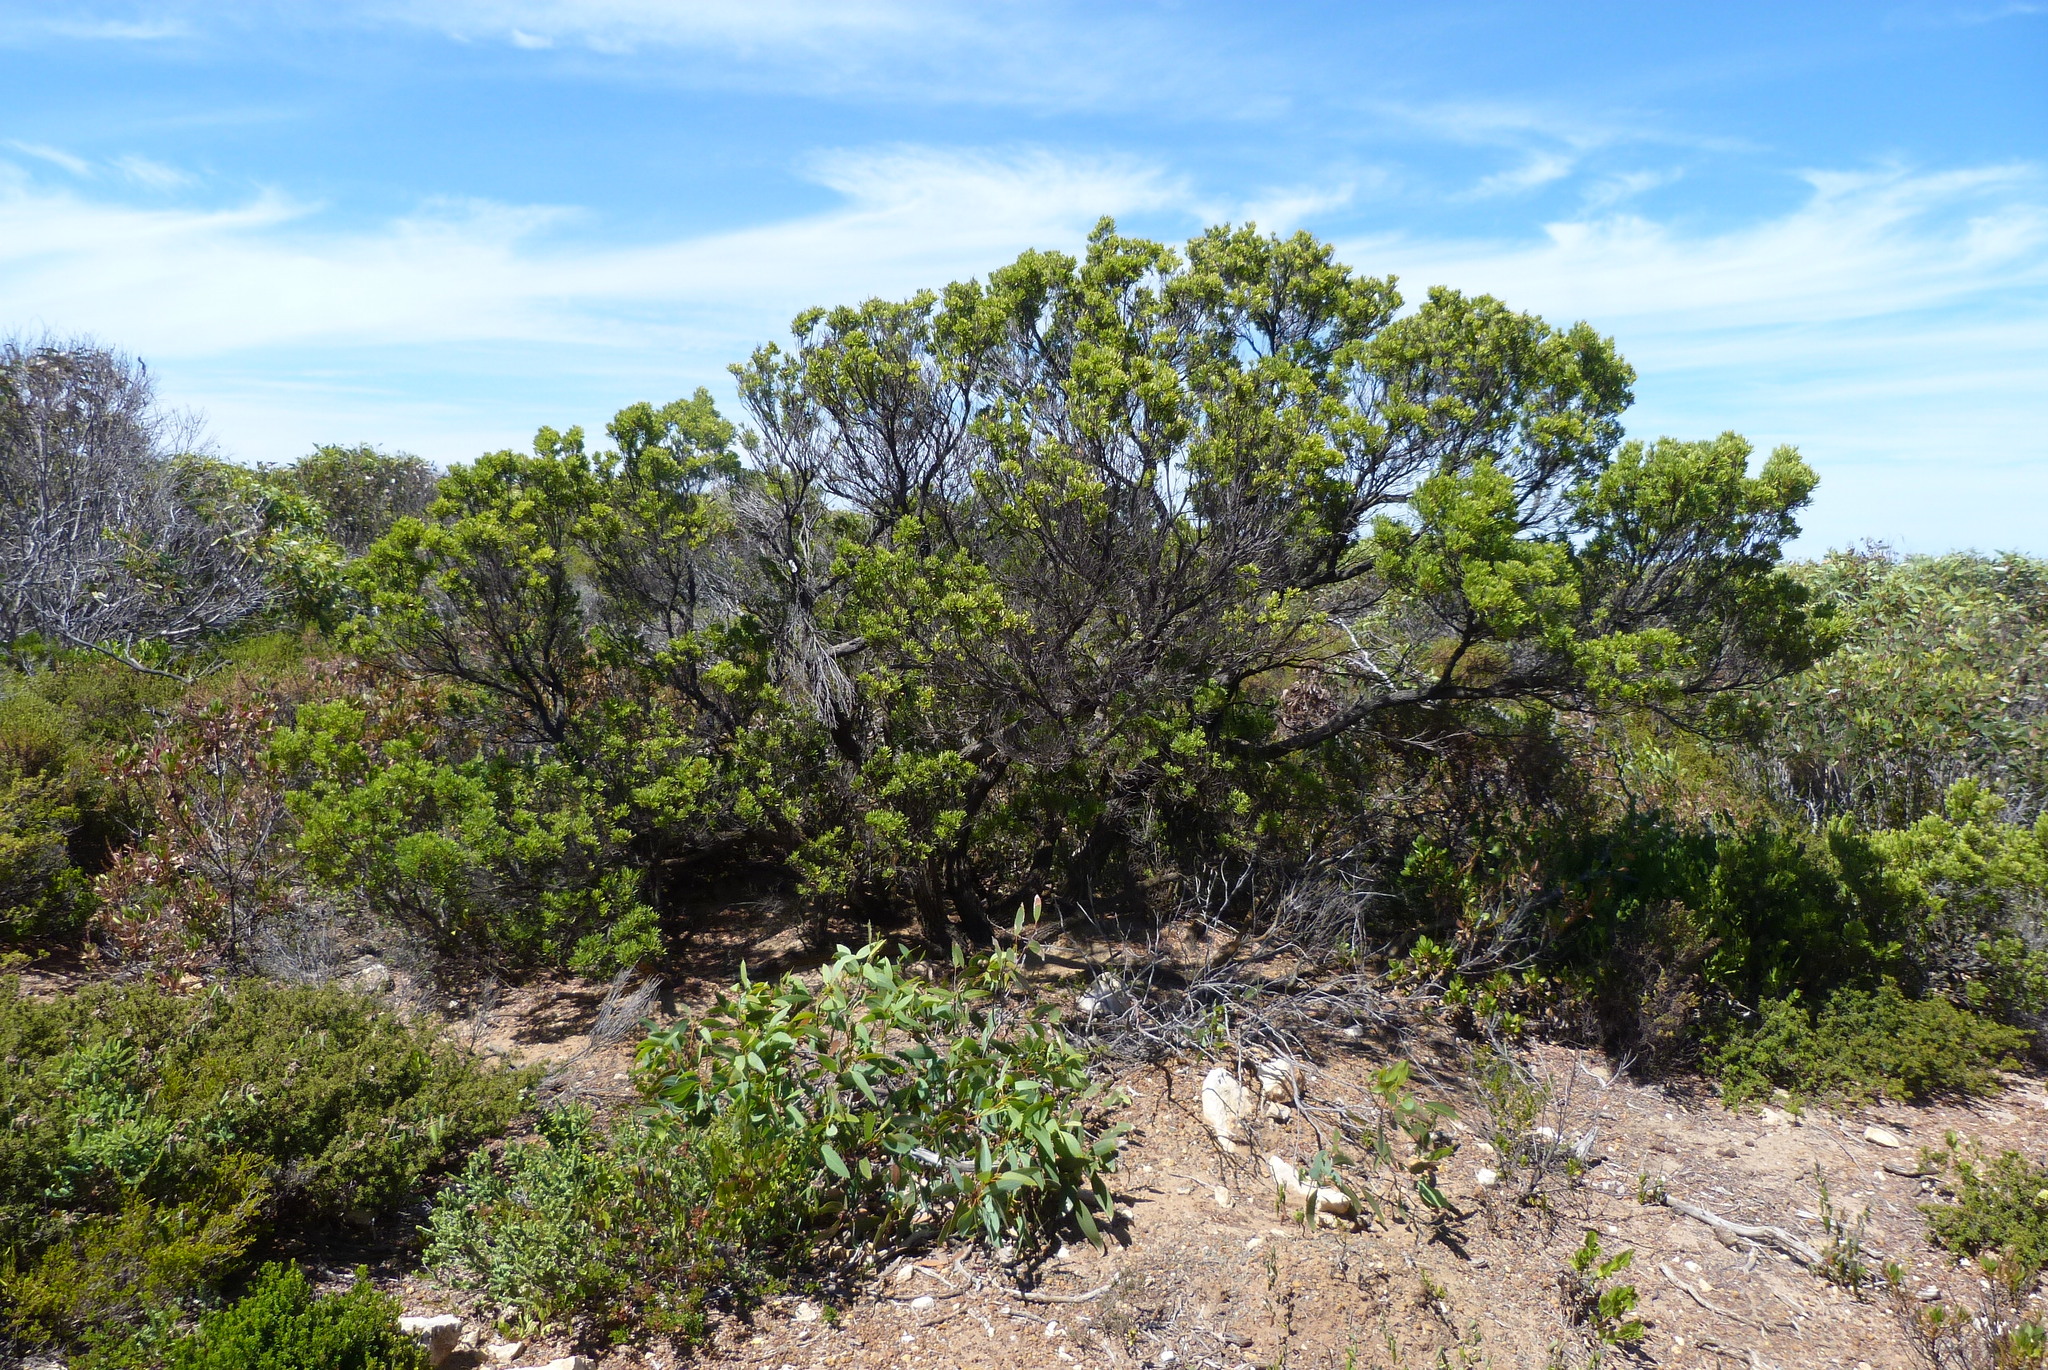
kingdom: Plantae
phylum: Tracheophyta
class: Magnoliopsida
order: Ericales
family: Ericaceae
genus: Leptecophylla
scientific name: Leptecophylla parvifolia
